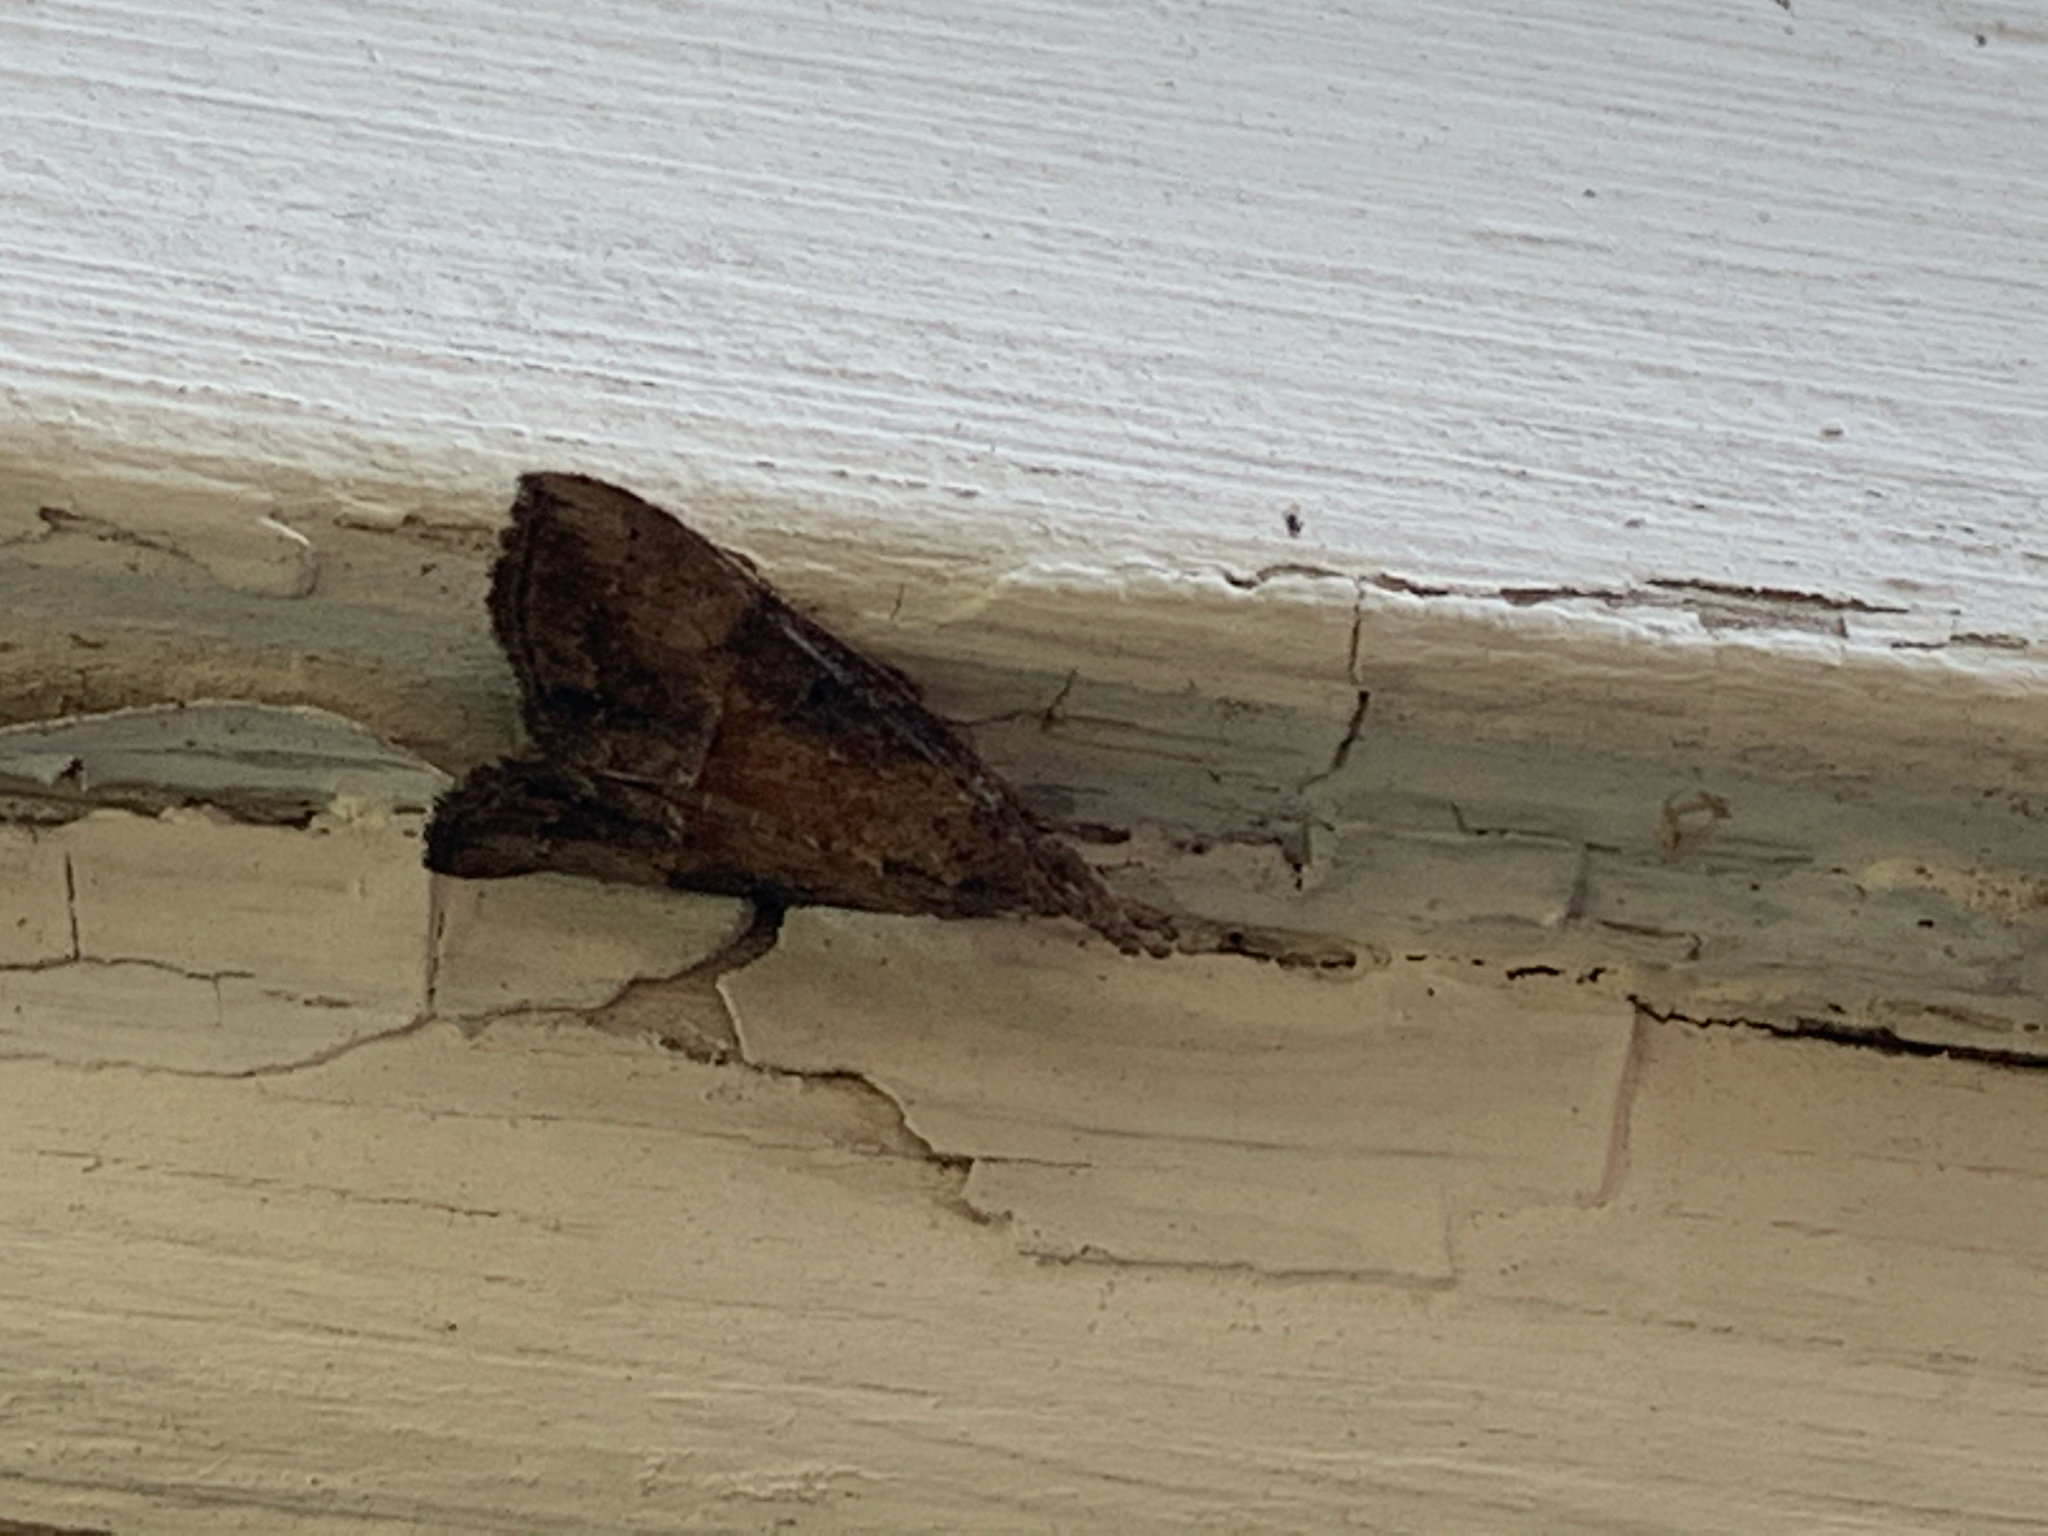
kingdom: Animalia
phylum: Arthropoda
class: Insecta
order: Lepidoptera
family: Erebidae
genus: Hypena
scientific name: Hypena scabra
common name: Green cloverworm
